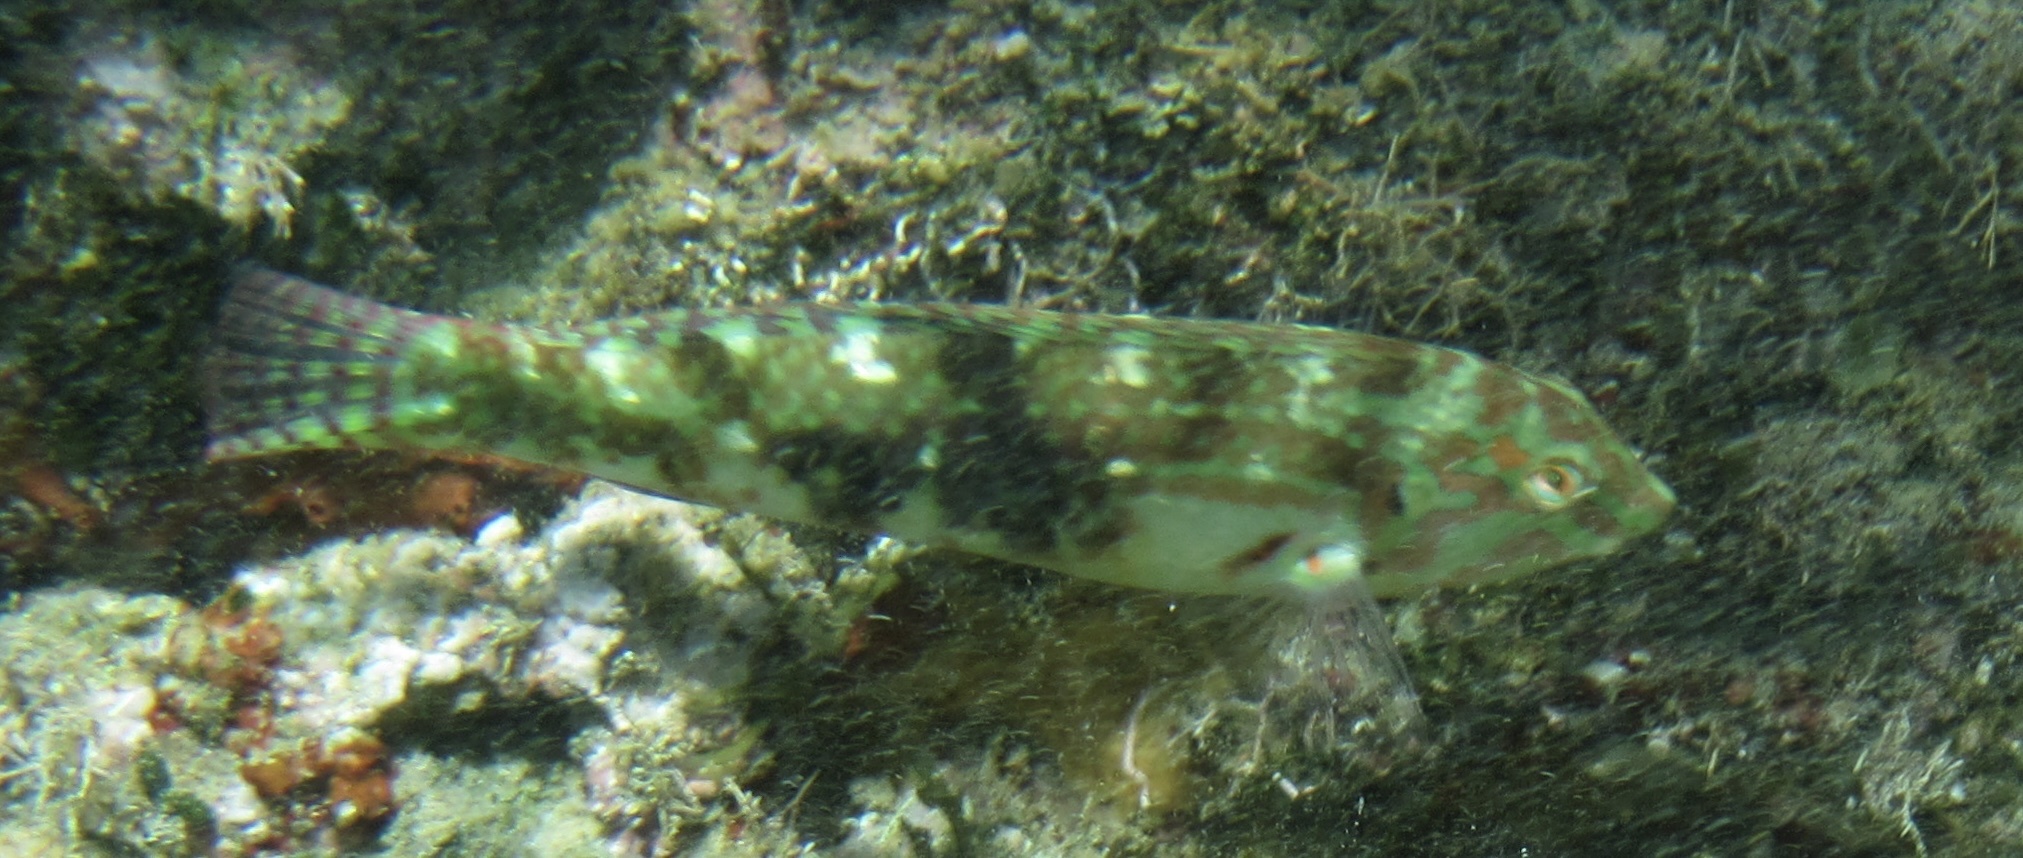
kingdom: Animalia
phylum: Chordata
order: Perciformes
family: Labridae
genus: Halichoeres
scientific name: Halichoeres nebulosus
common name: Clouded wrasse
